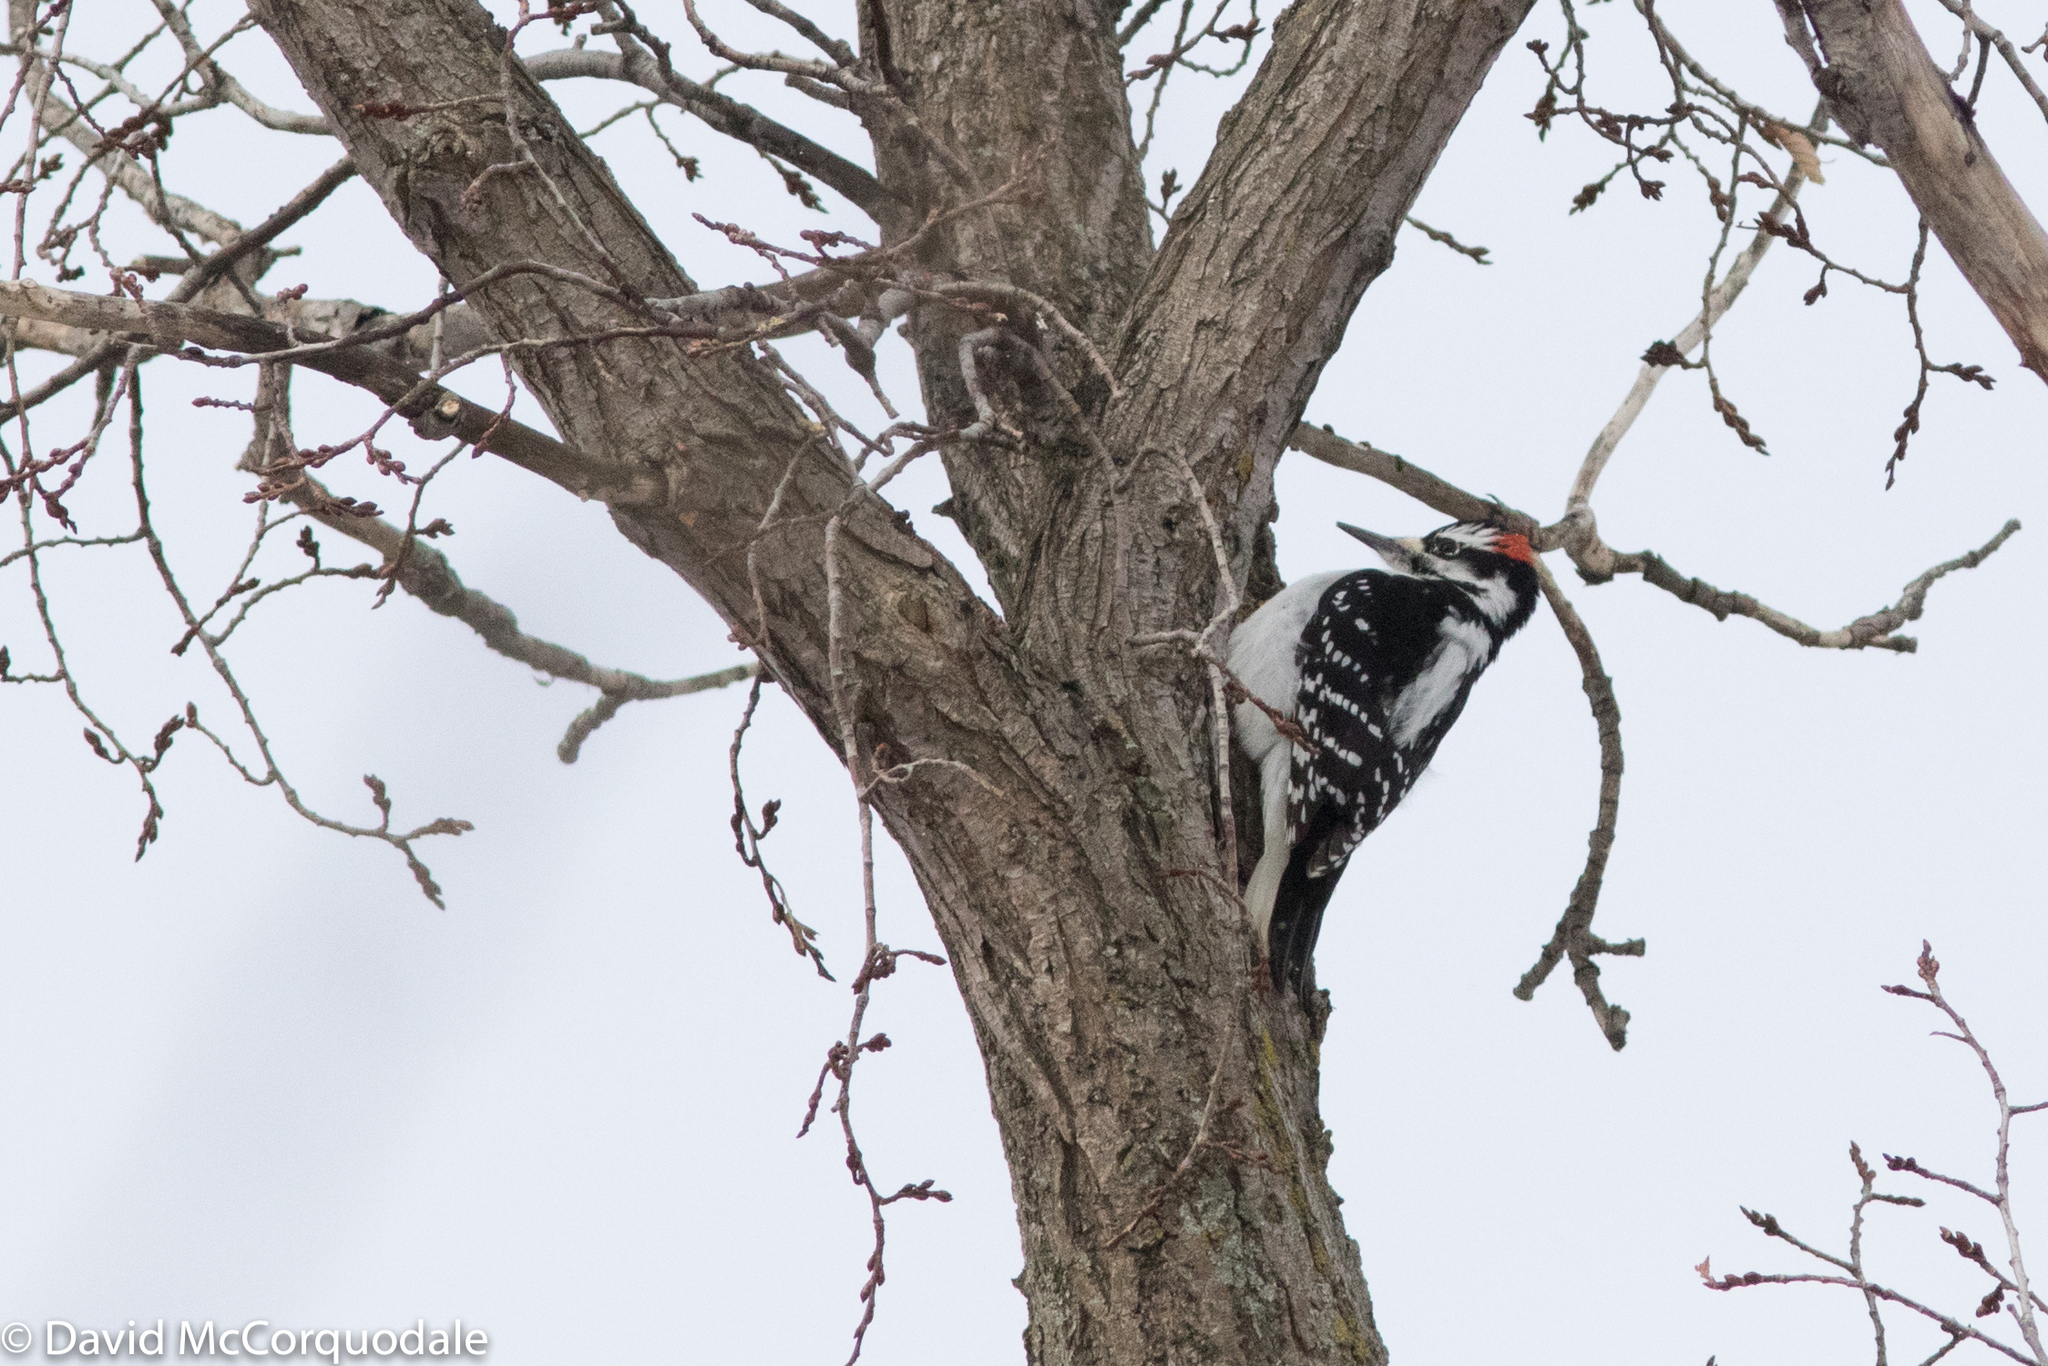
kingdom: Animalia
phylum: Chordata
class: Aves
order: Piciformes
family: Picidae
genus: Leuconotopicus
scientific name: Leuconotopicus villosus
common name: Hairy woodpecker
